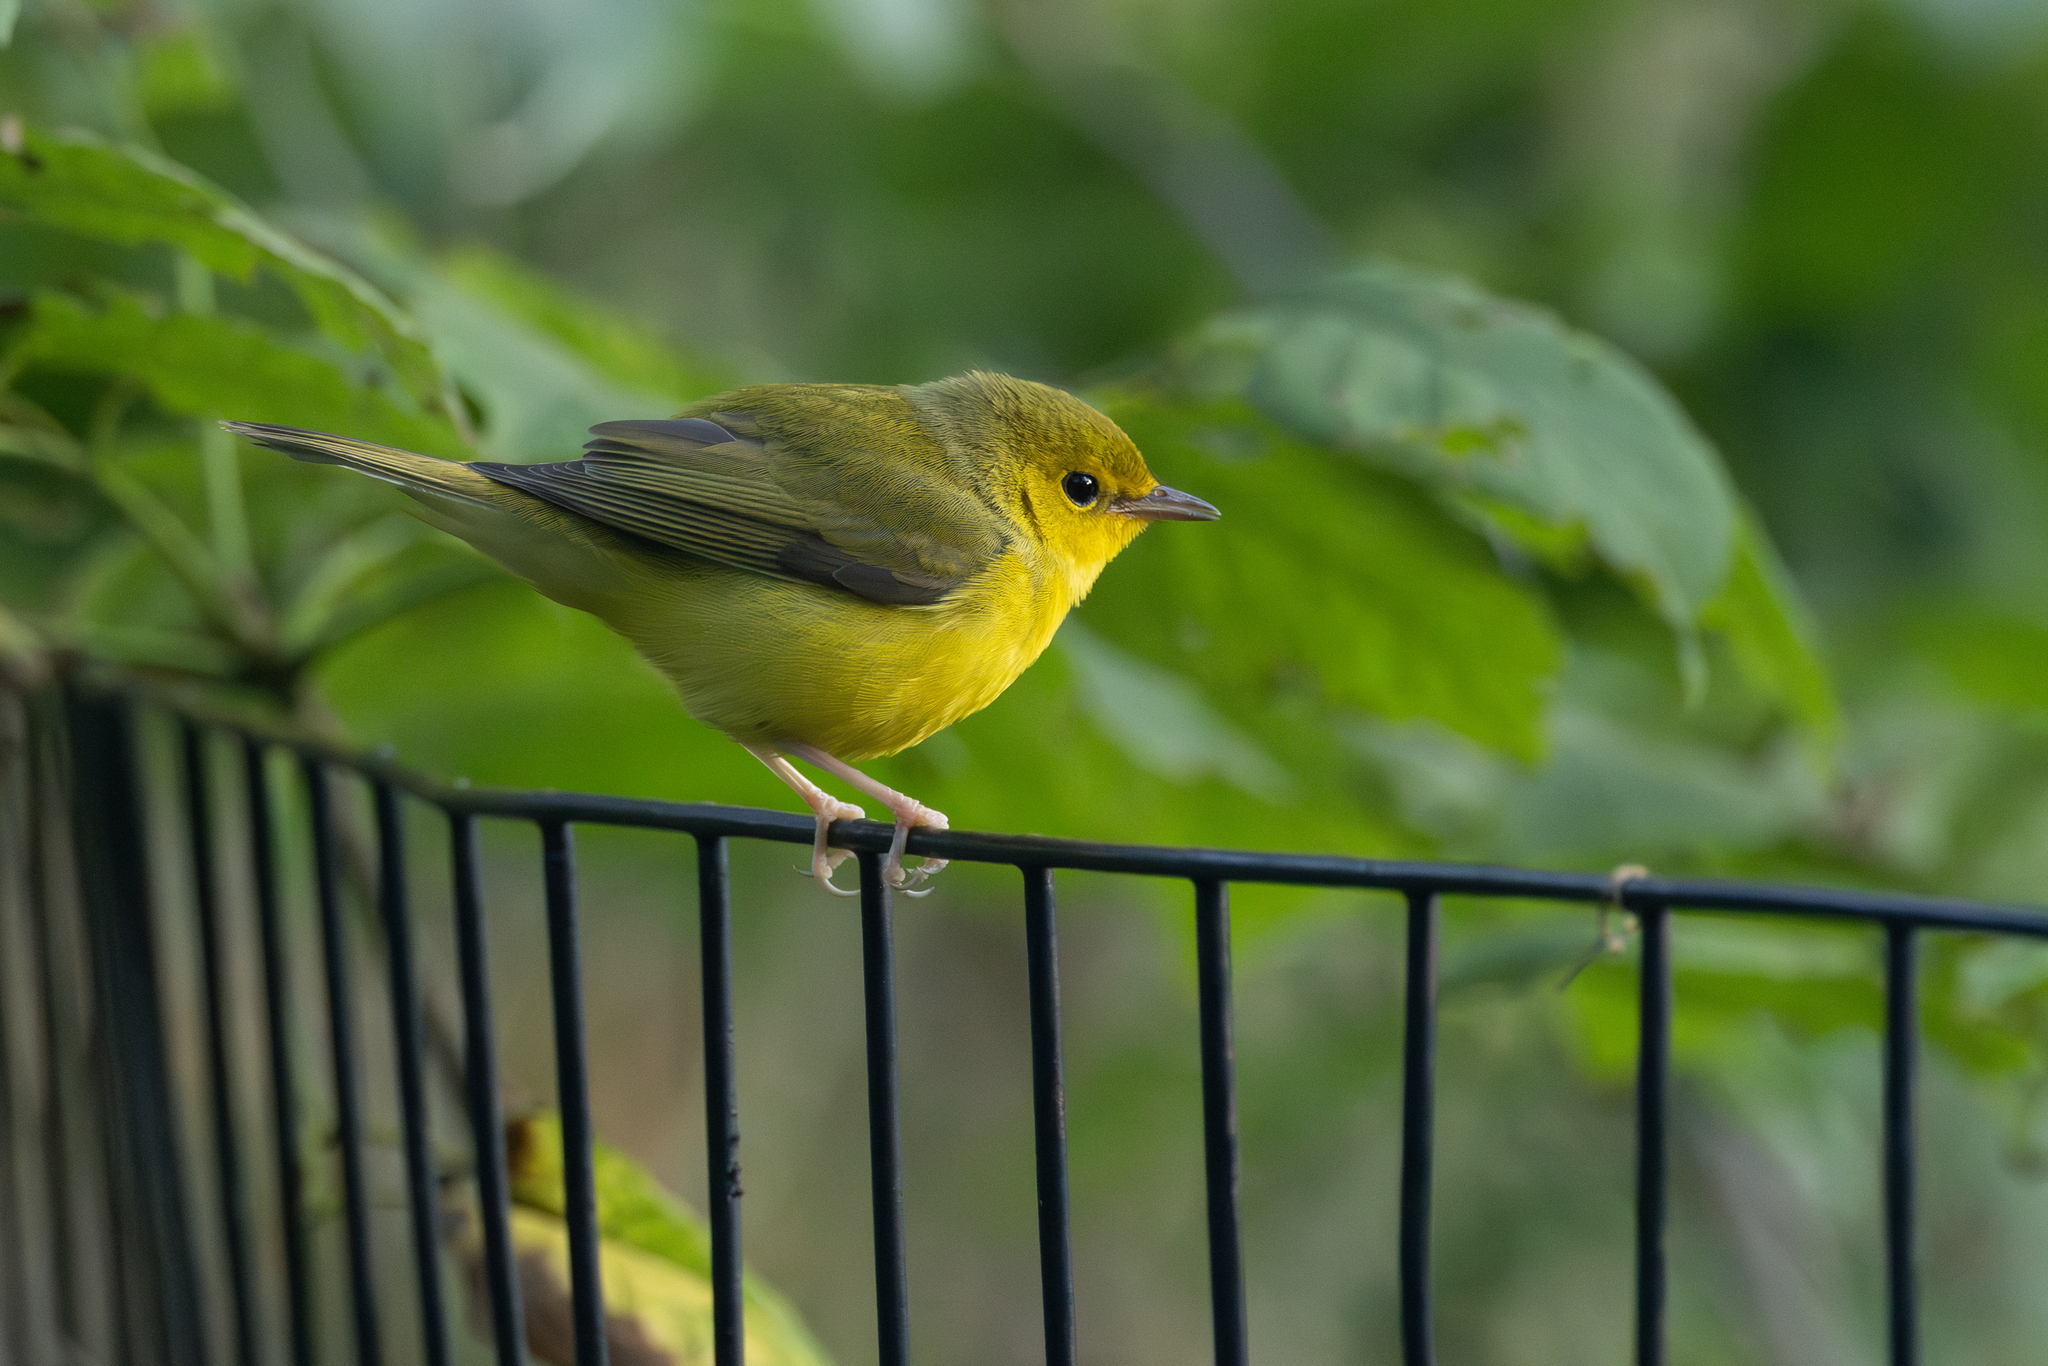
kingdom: Animalia
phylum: Chordata
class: Aves
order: Passeriformes
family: Parulidae
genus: Setophaga
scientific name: Setophaga citrina
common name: Hooded warbler
